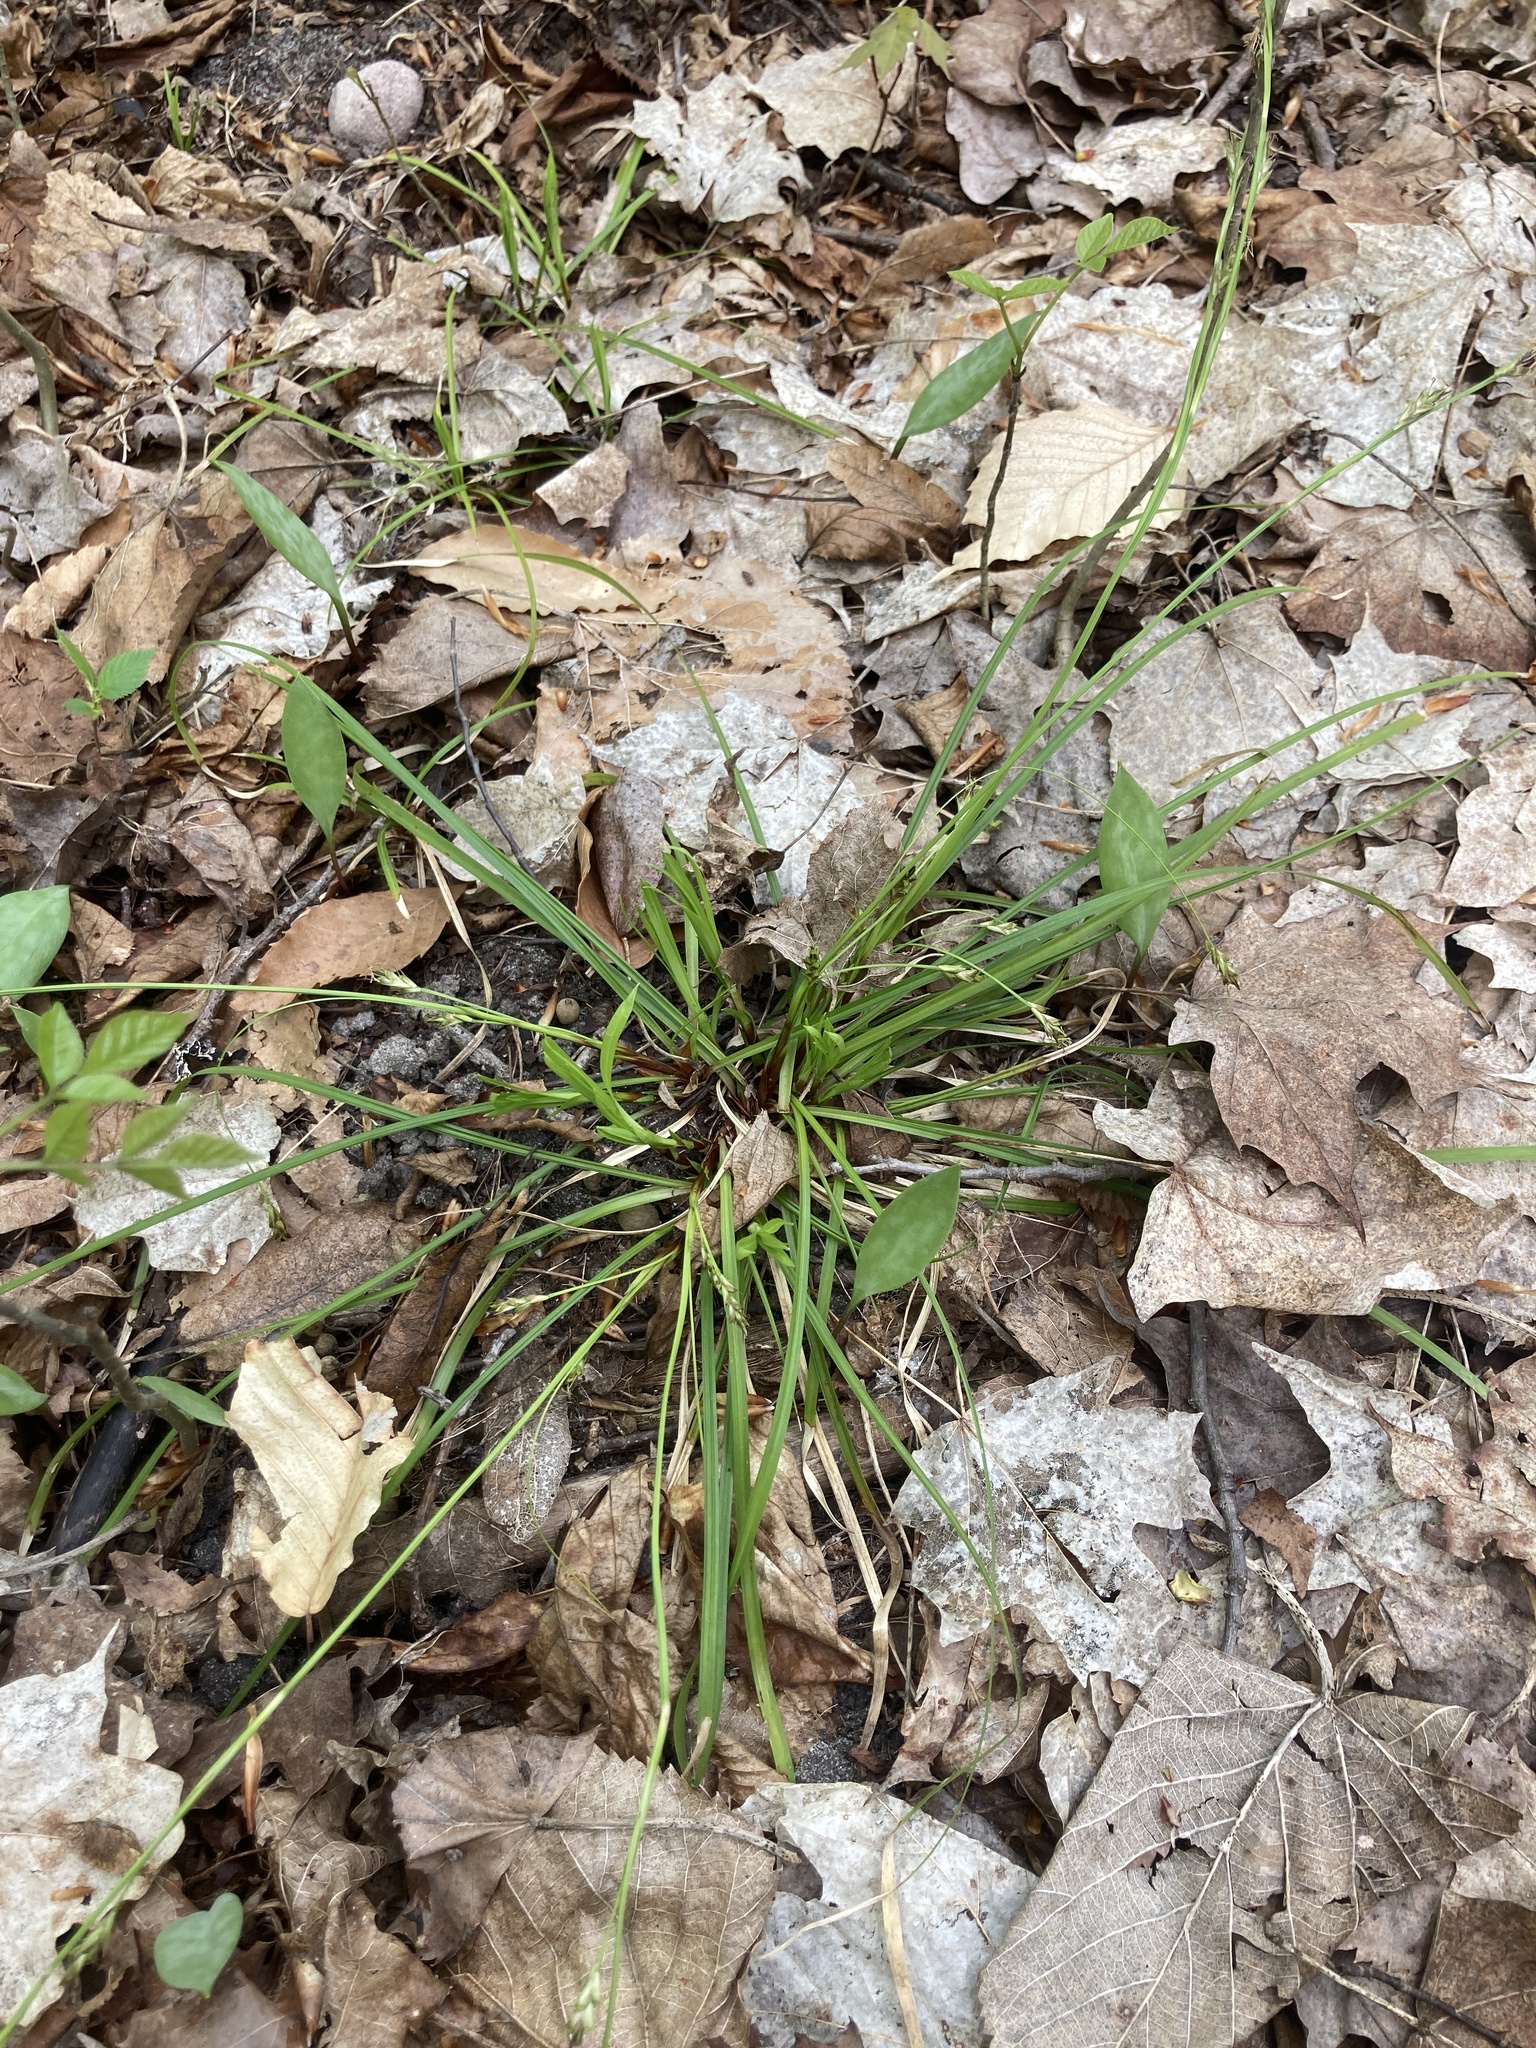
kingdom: Plantae
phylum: Tracheophyta
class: Liliopsida
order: Poales
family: Cyperaceae
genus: Carex
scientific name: Carex pedunculata
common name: Pedunculate sedge
